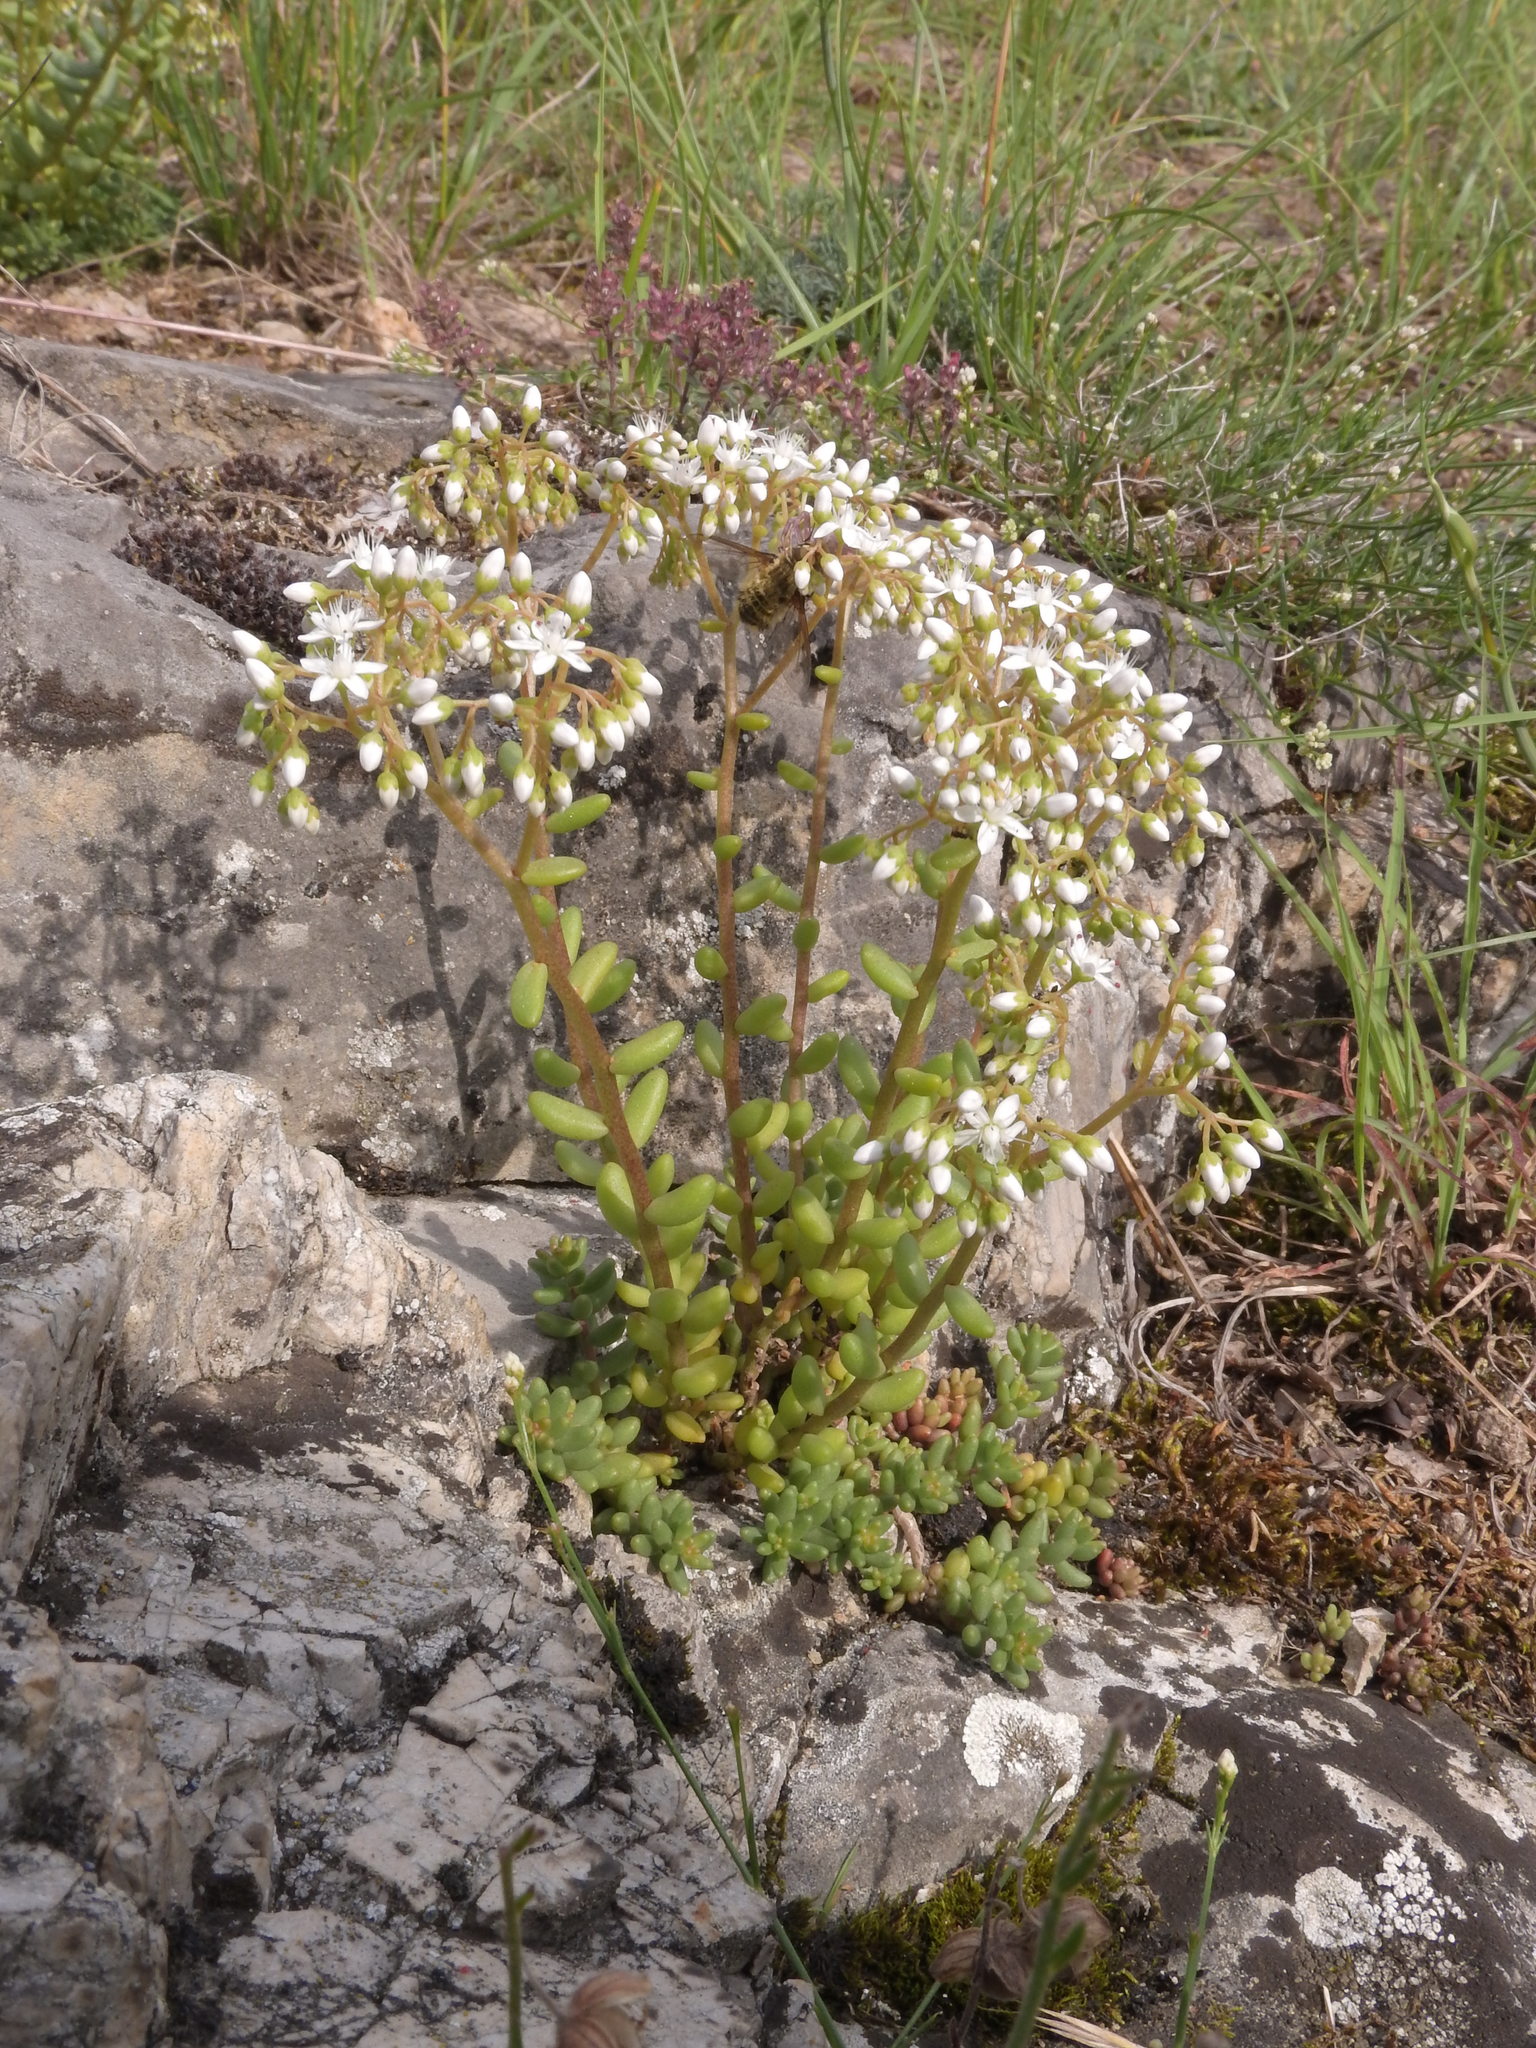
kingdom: Plantae
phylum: Tracheophyta
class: Magnoliopsida
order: Saxifragales
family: Crassulaceae
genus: Sedum
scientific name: Sedum album
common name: White stonecrop
